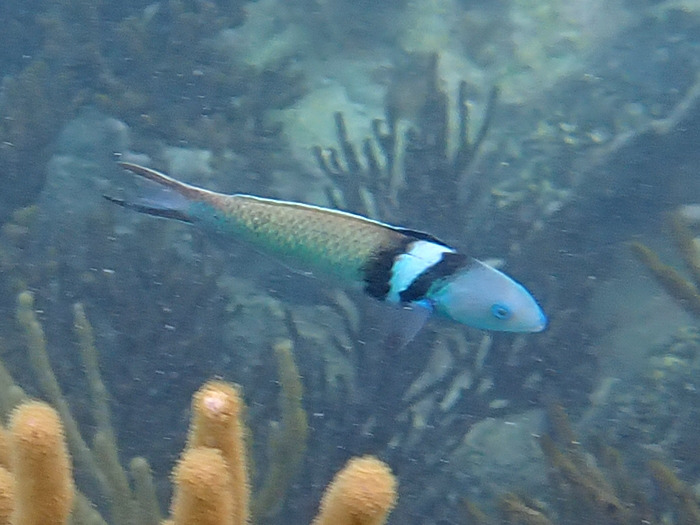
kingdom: Animalia
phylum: Chordata
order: Perciformes
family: Labridae
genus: Thalassoma
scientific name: Thalassoma bifasciatum
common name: Bluehead wrasse
